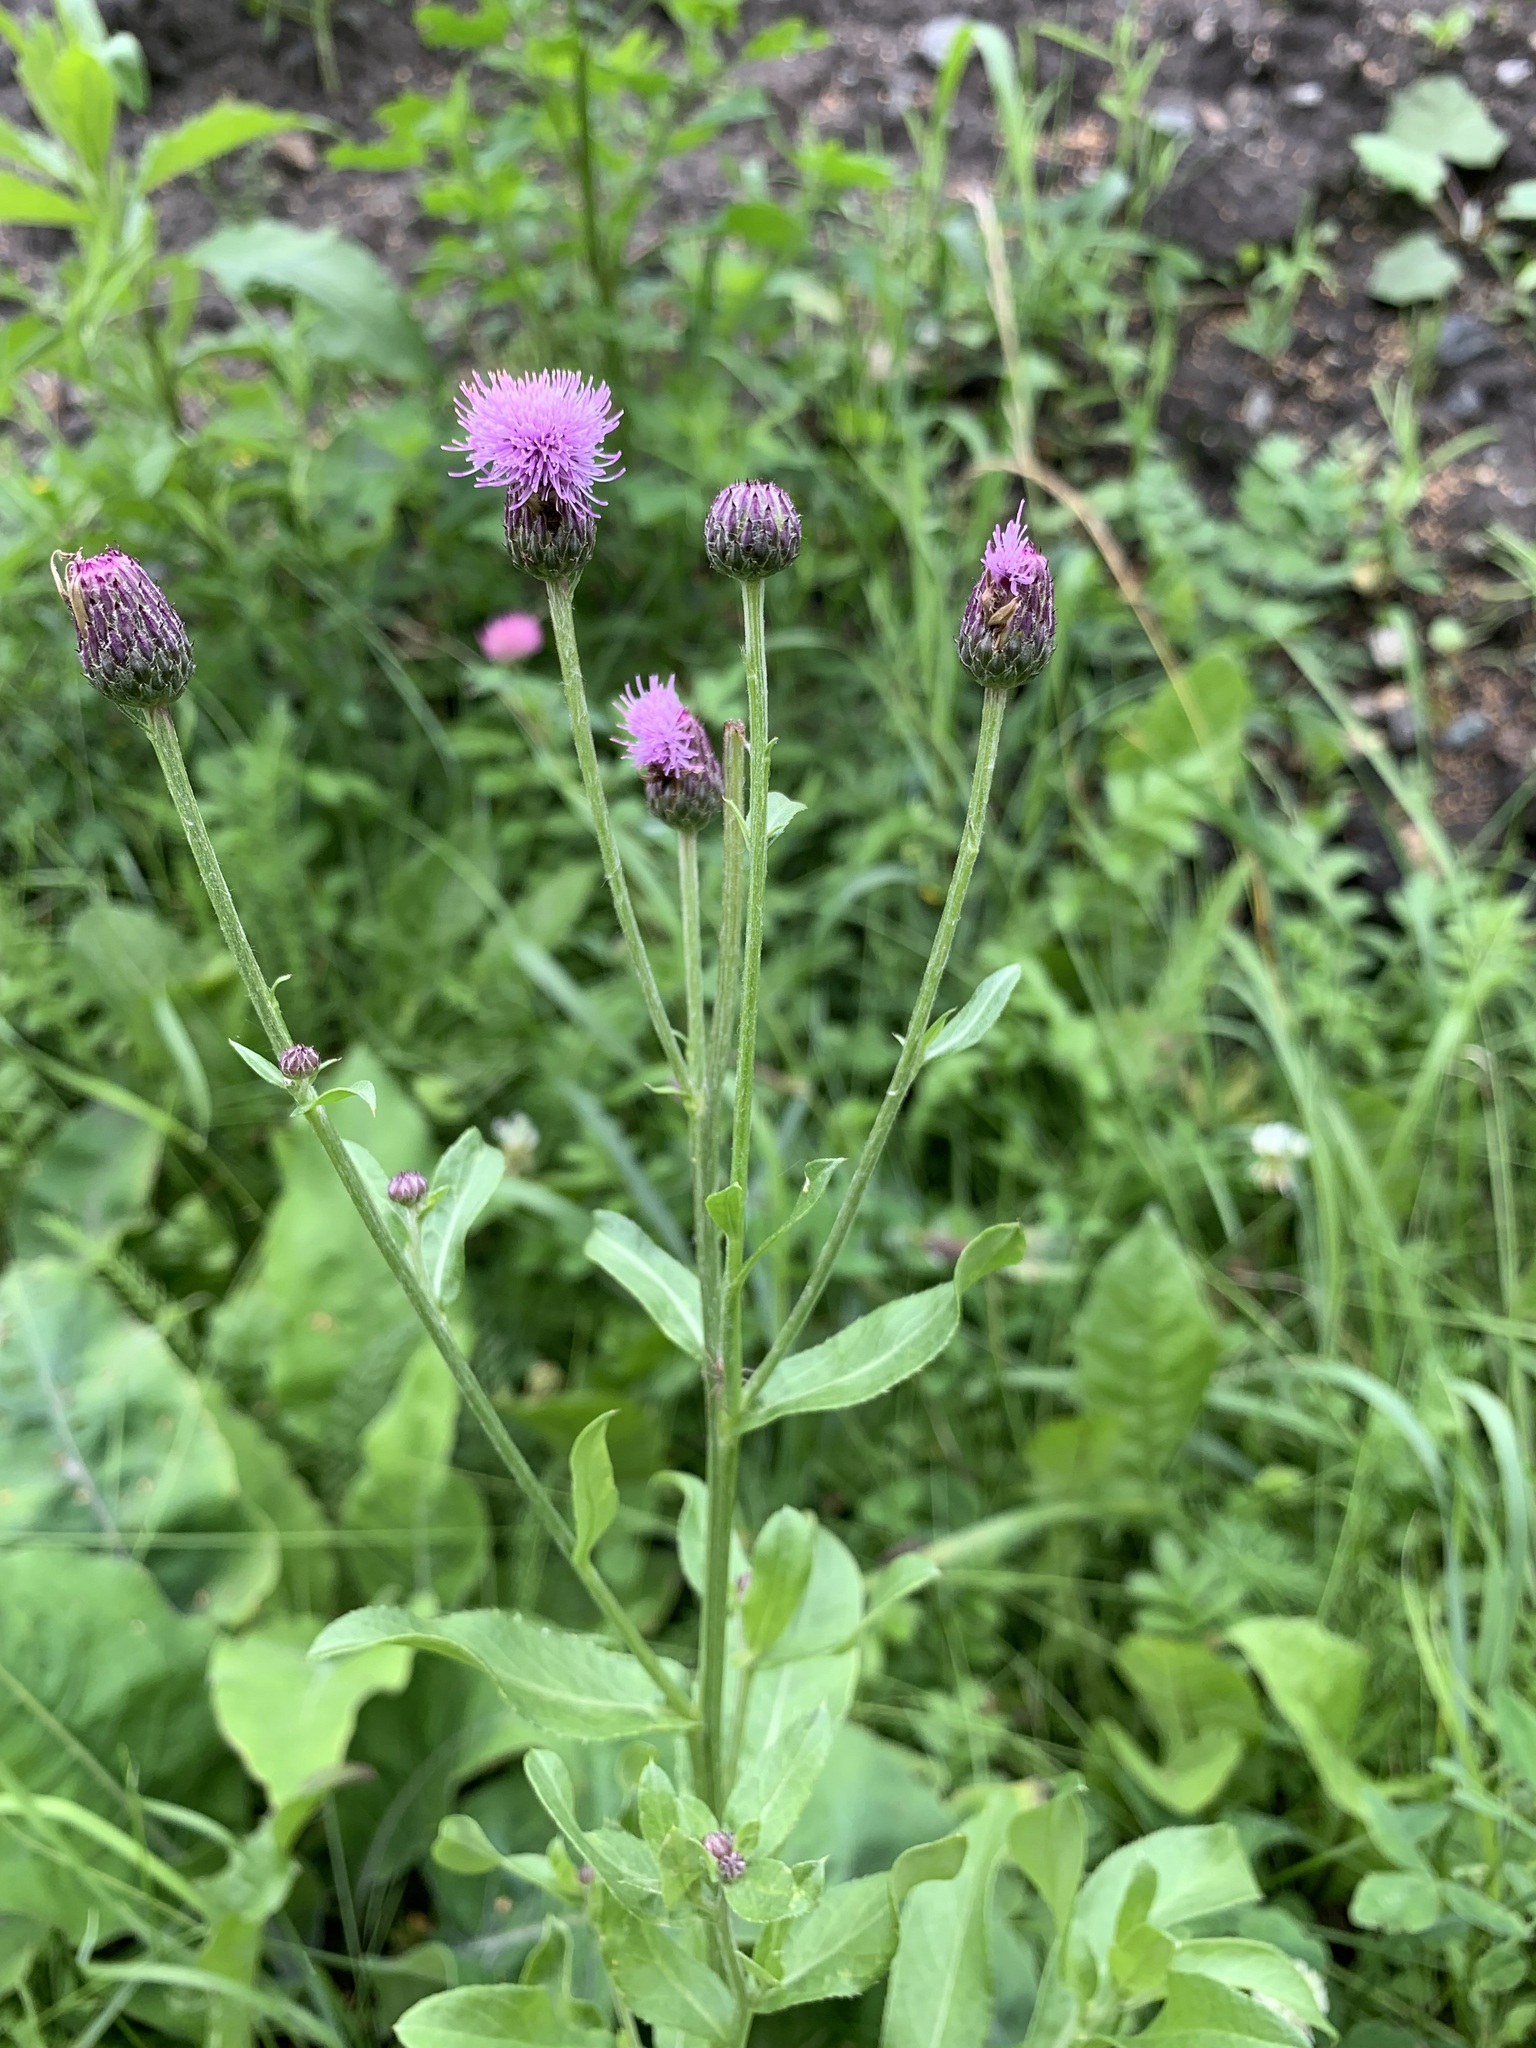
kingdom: Plantae
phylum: Tracheophyta
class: Magnoliopsida
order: Asterales
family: Asteraceae
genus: Cirsium
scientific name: Cirsium arvense
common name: Creeping thistle
